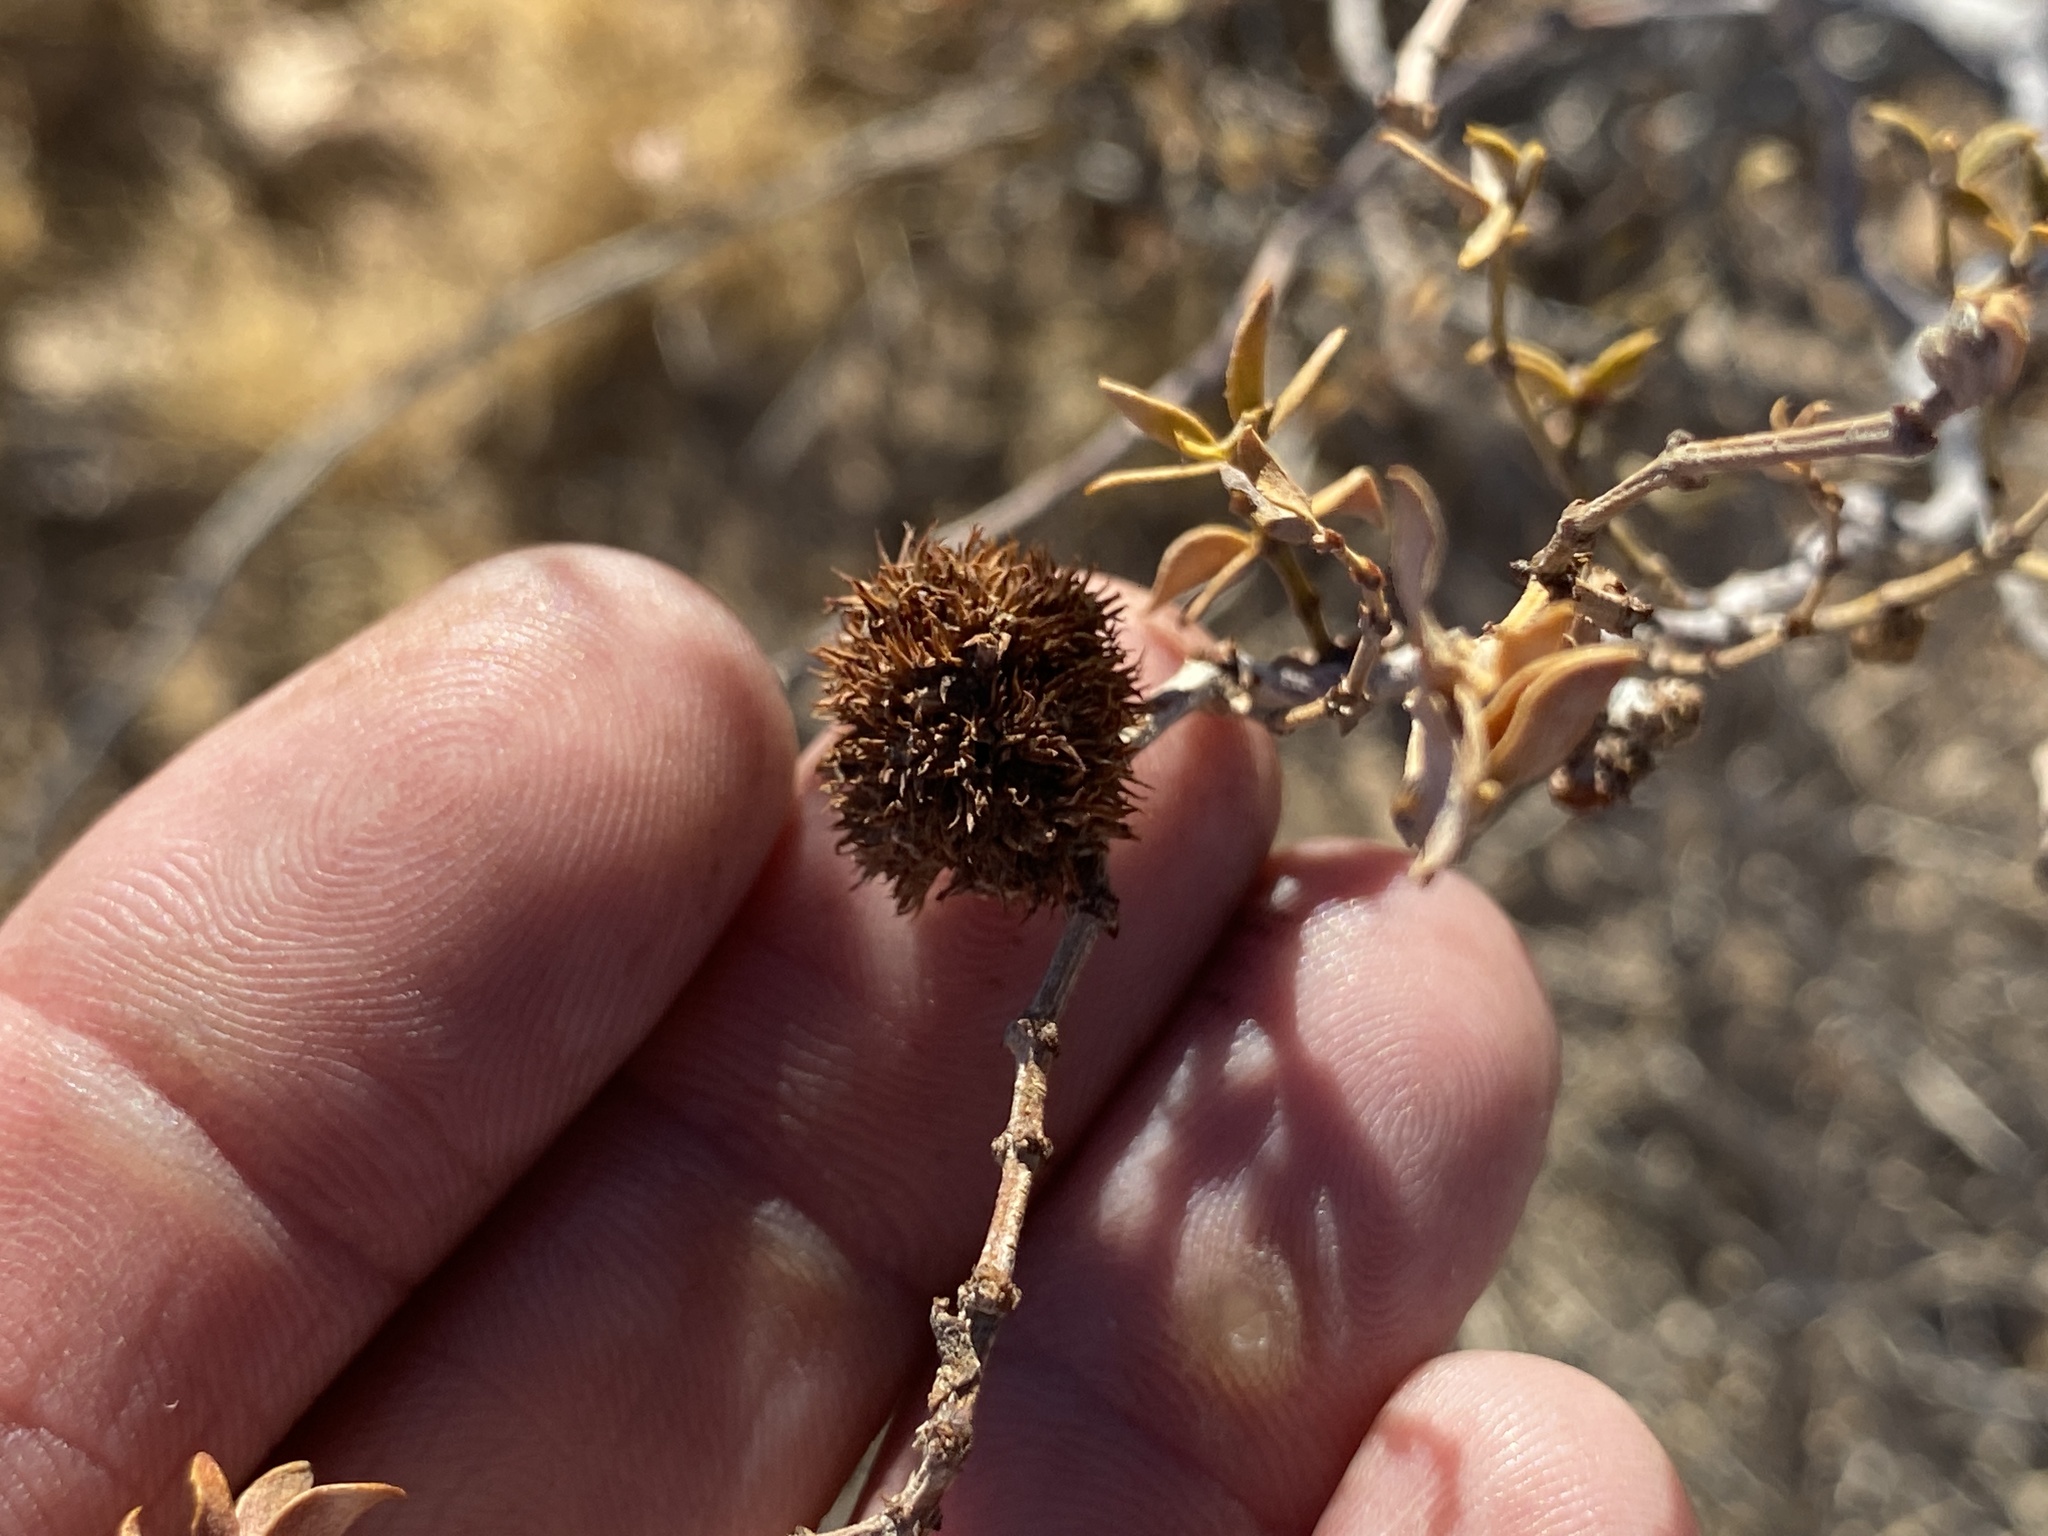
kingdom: Animalia
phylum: Arthropoda
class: Insecta
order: Diptera
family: Cecidomyiidae
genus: Asphondylia
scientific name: Asphondylia auripila
